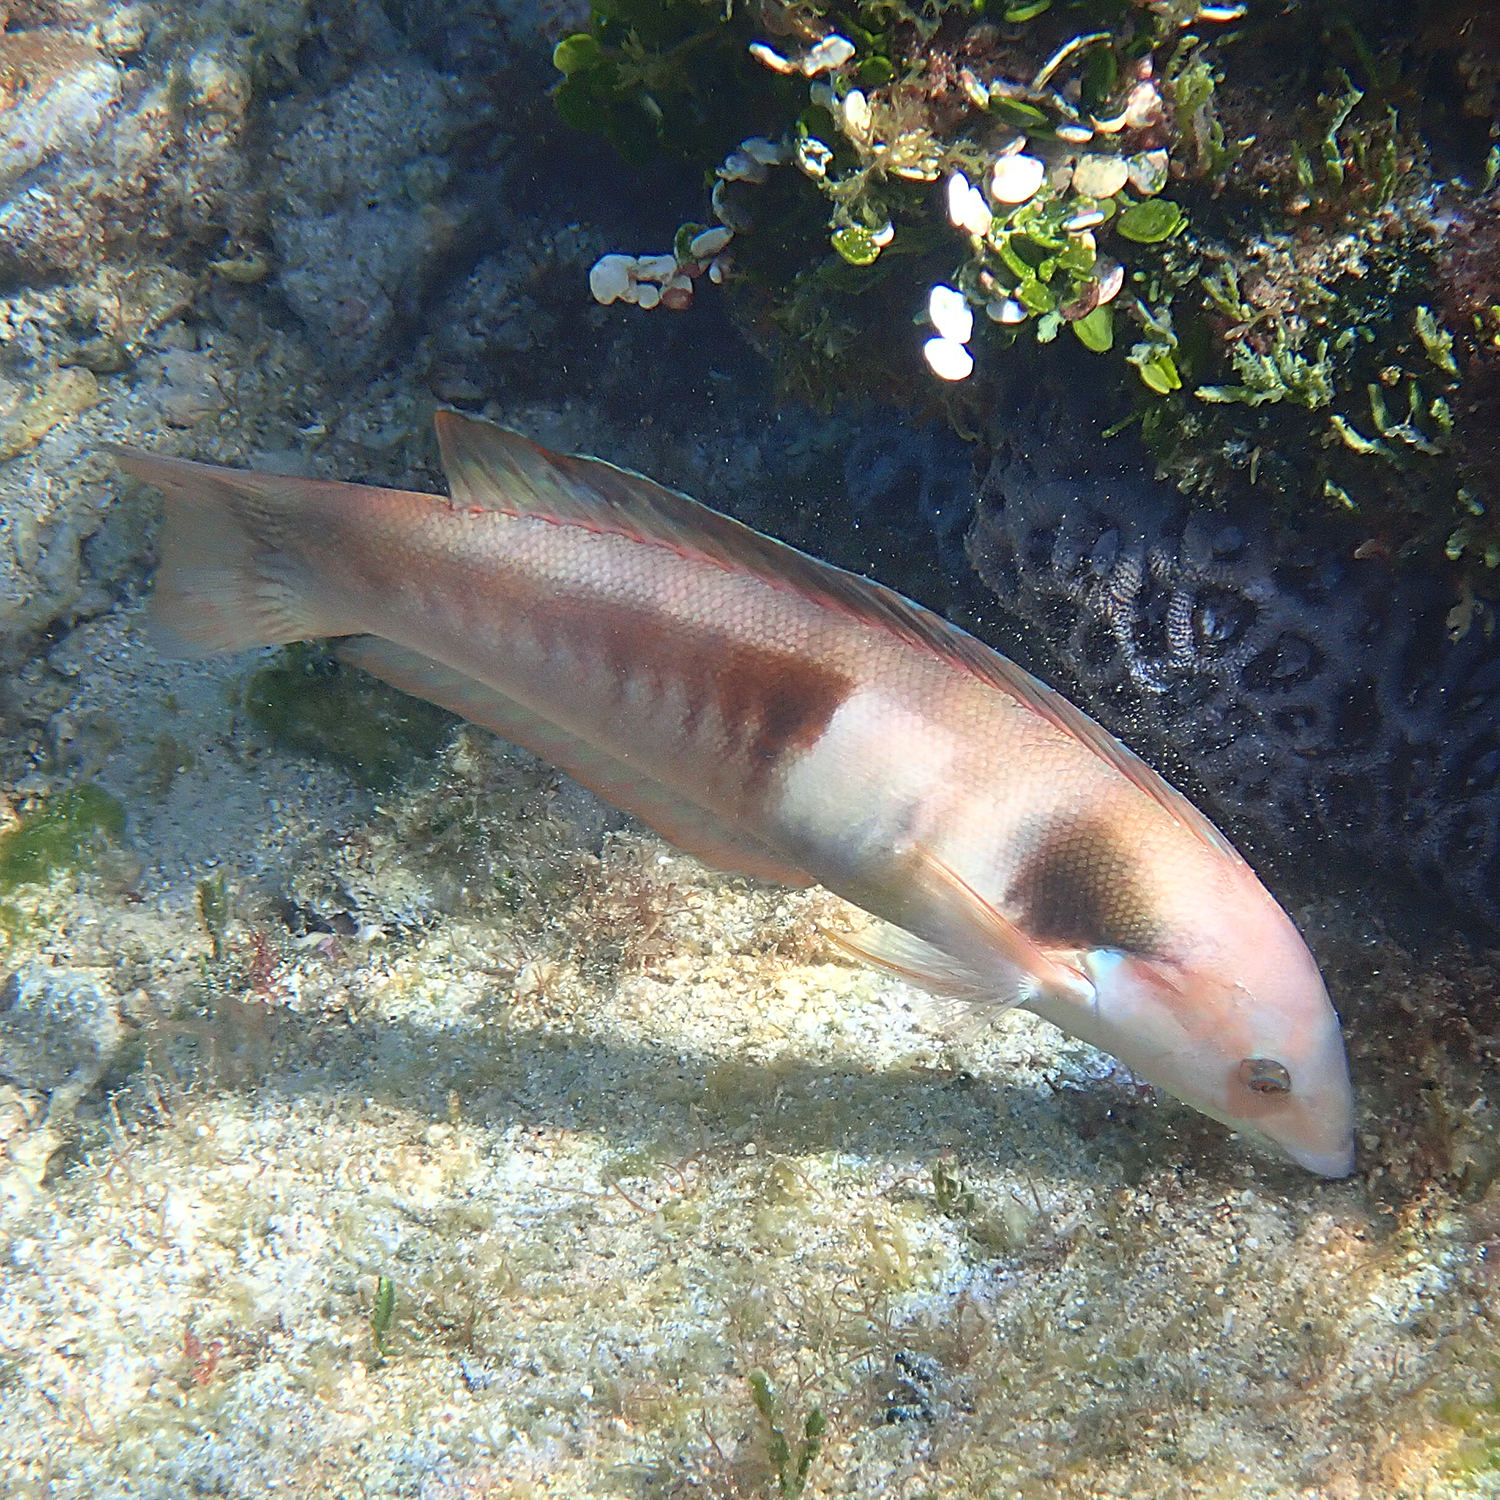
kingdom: Animalia
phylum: Chordata
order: Perciformes
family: Labridae
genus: Coris
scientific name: Coris sandeyeri
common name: Sandager's wrasse
